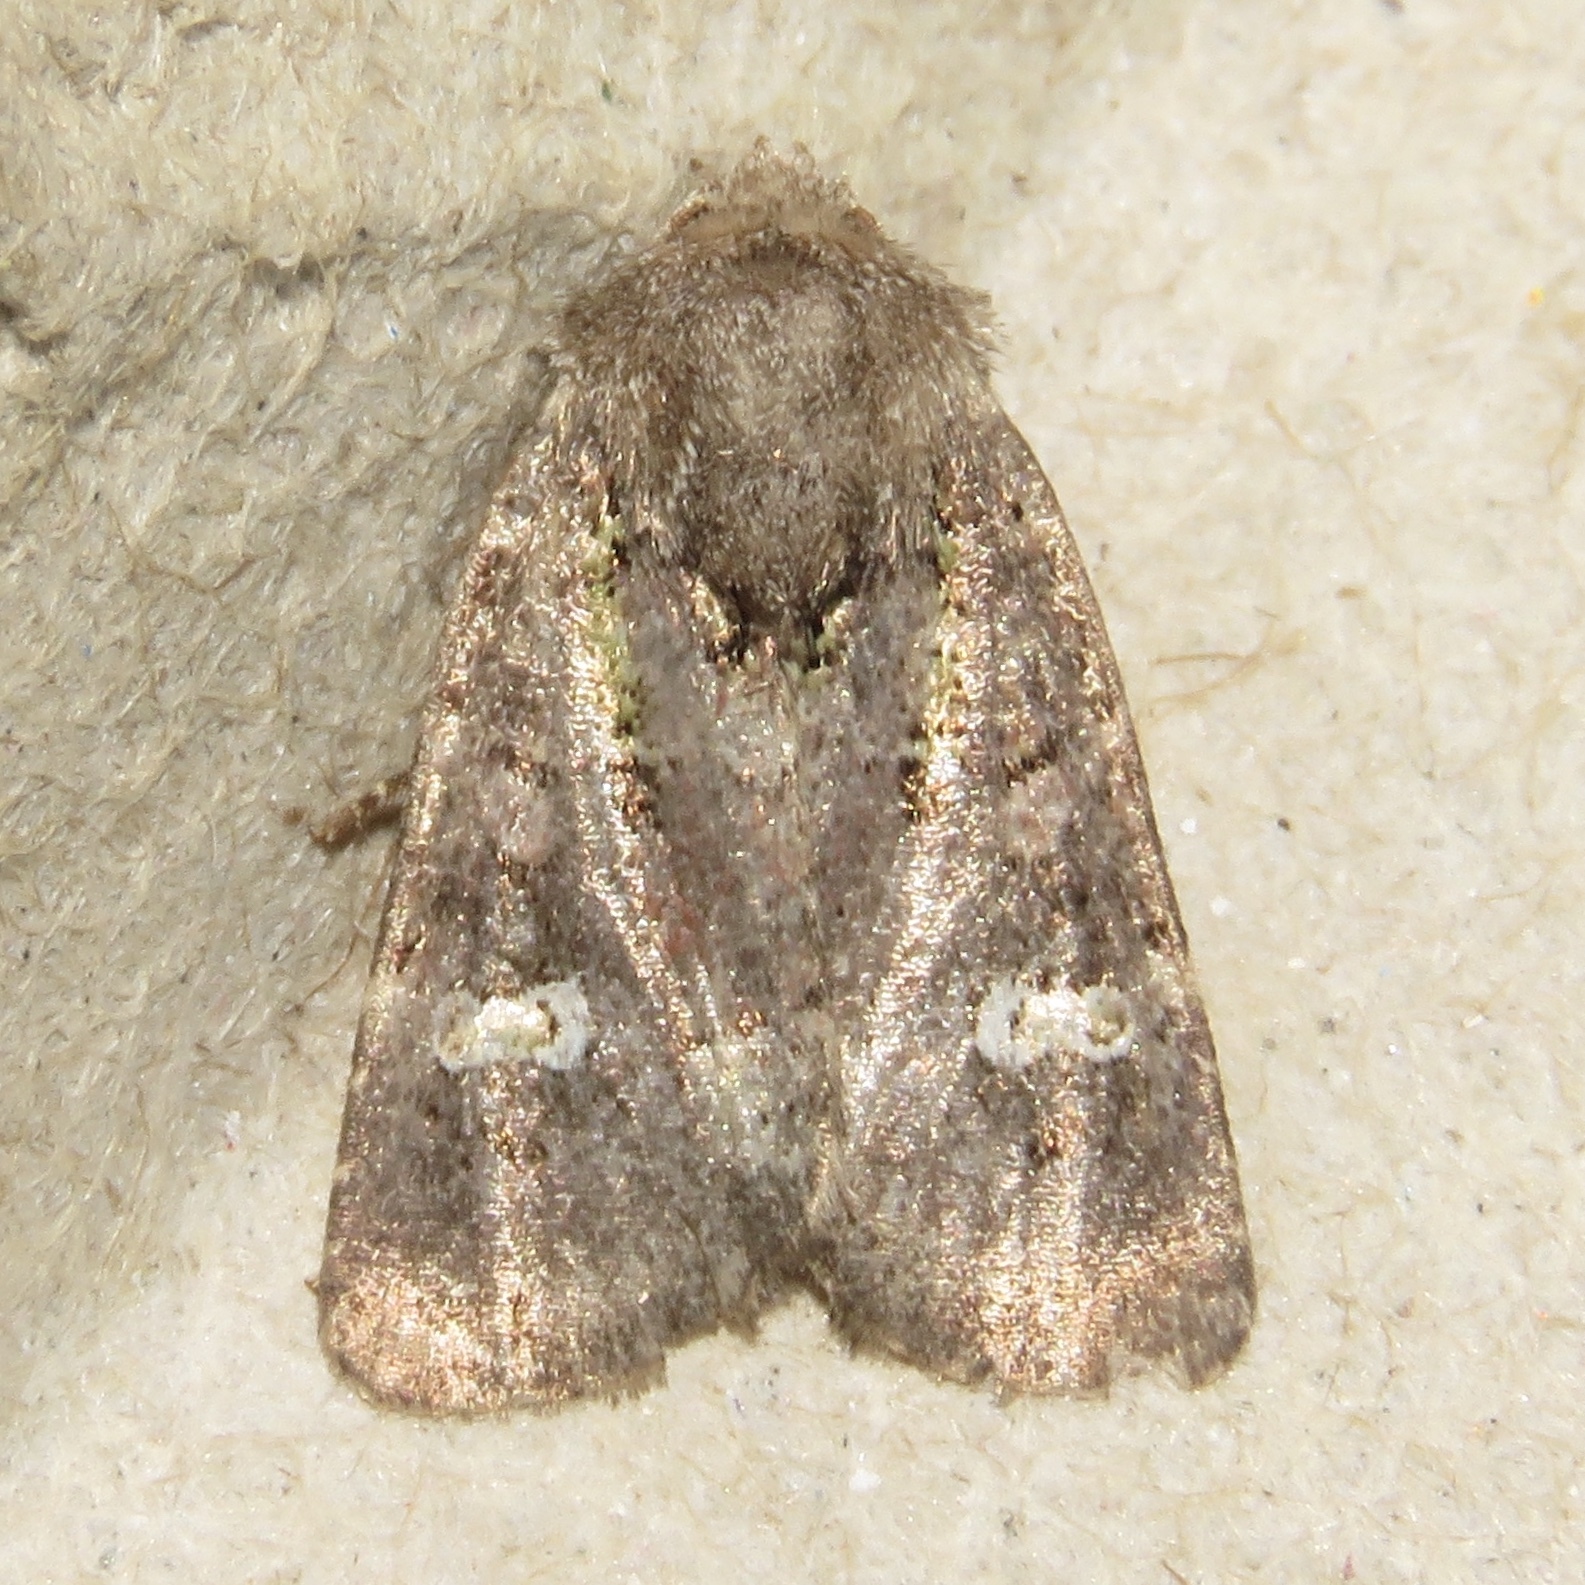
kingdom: Animalia
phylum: Arthropoda
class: Insecta
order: Lepidoptera
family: Noctuidae
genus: Lacinipolia
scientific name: Lacinipolia renigera
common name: Kidney-spotted minor
